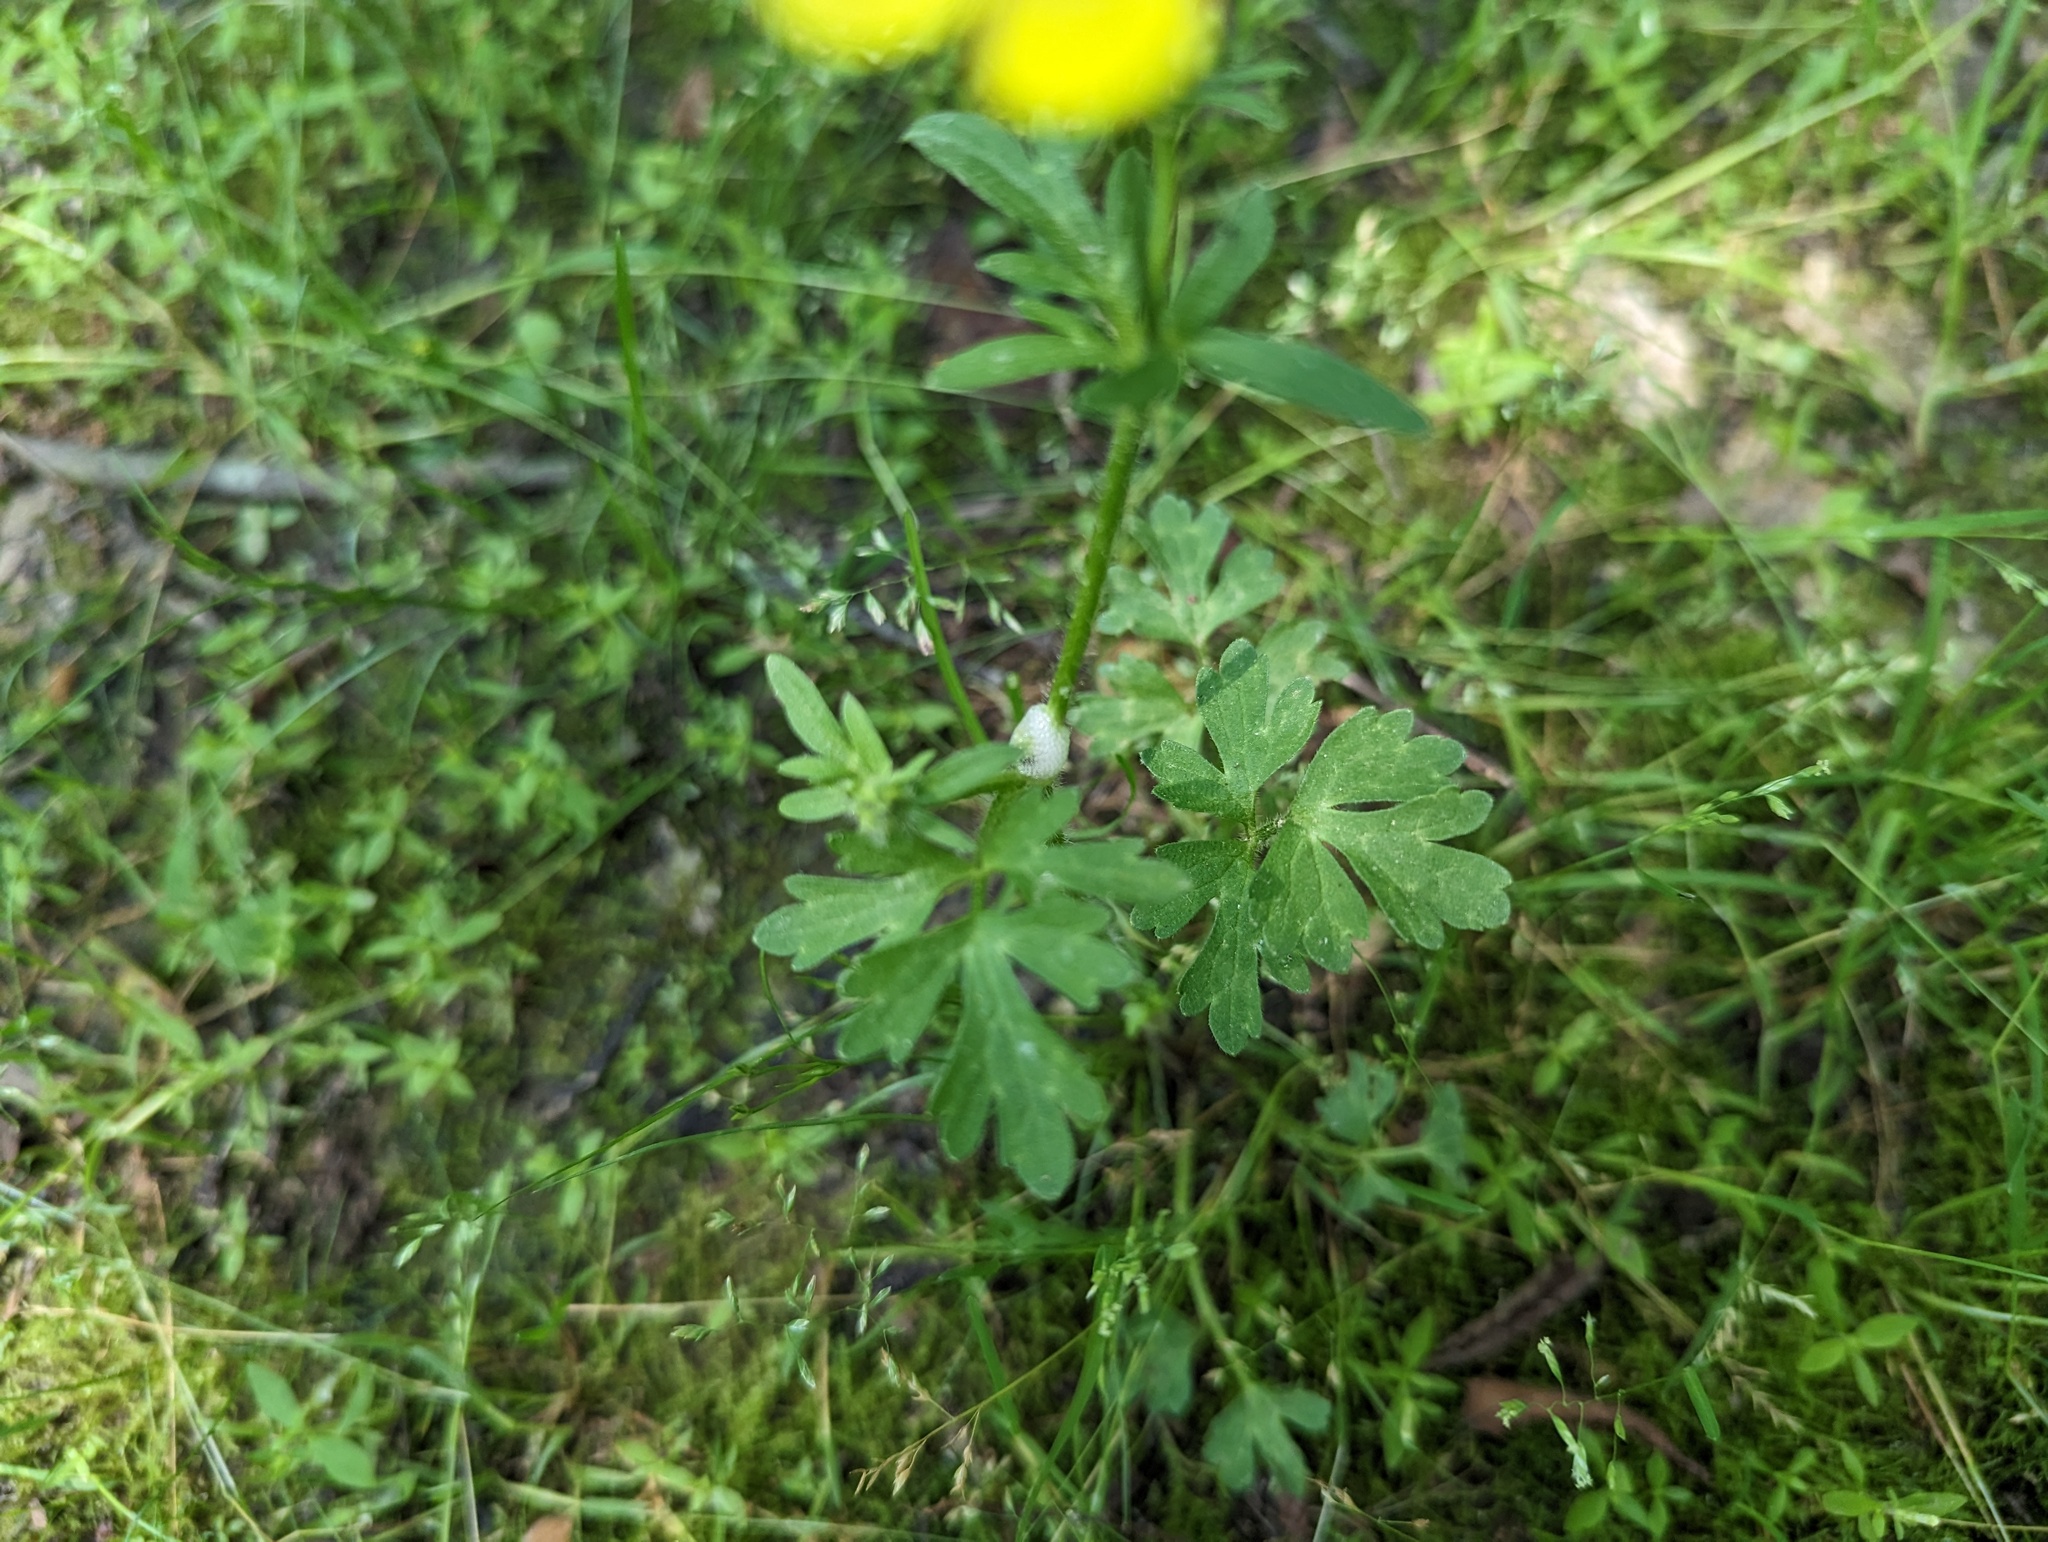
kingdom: Plantae
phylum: Tracheophyta
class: Magnoliopsida
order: Ranunculales
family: Ranunculaceae
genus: Ranunculus
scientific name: Ranunculus sardous
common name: Hairy buttercup
